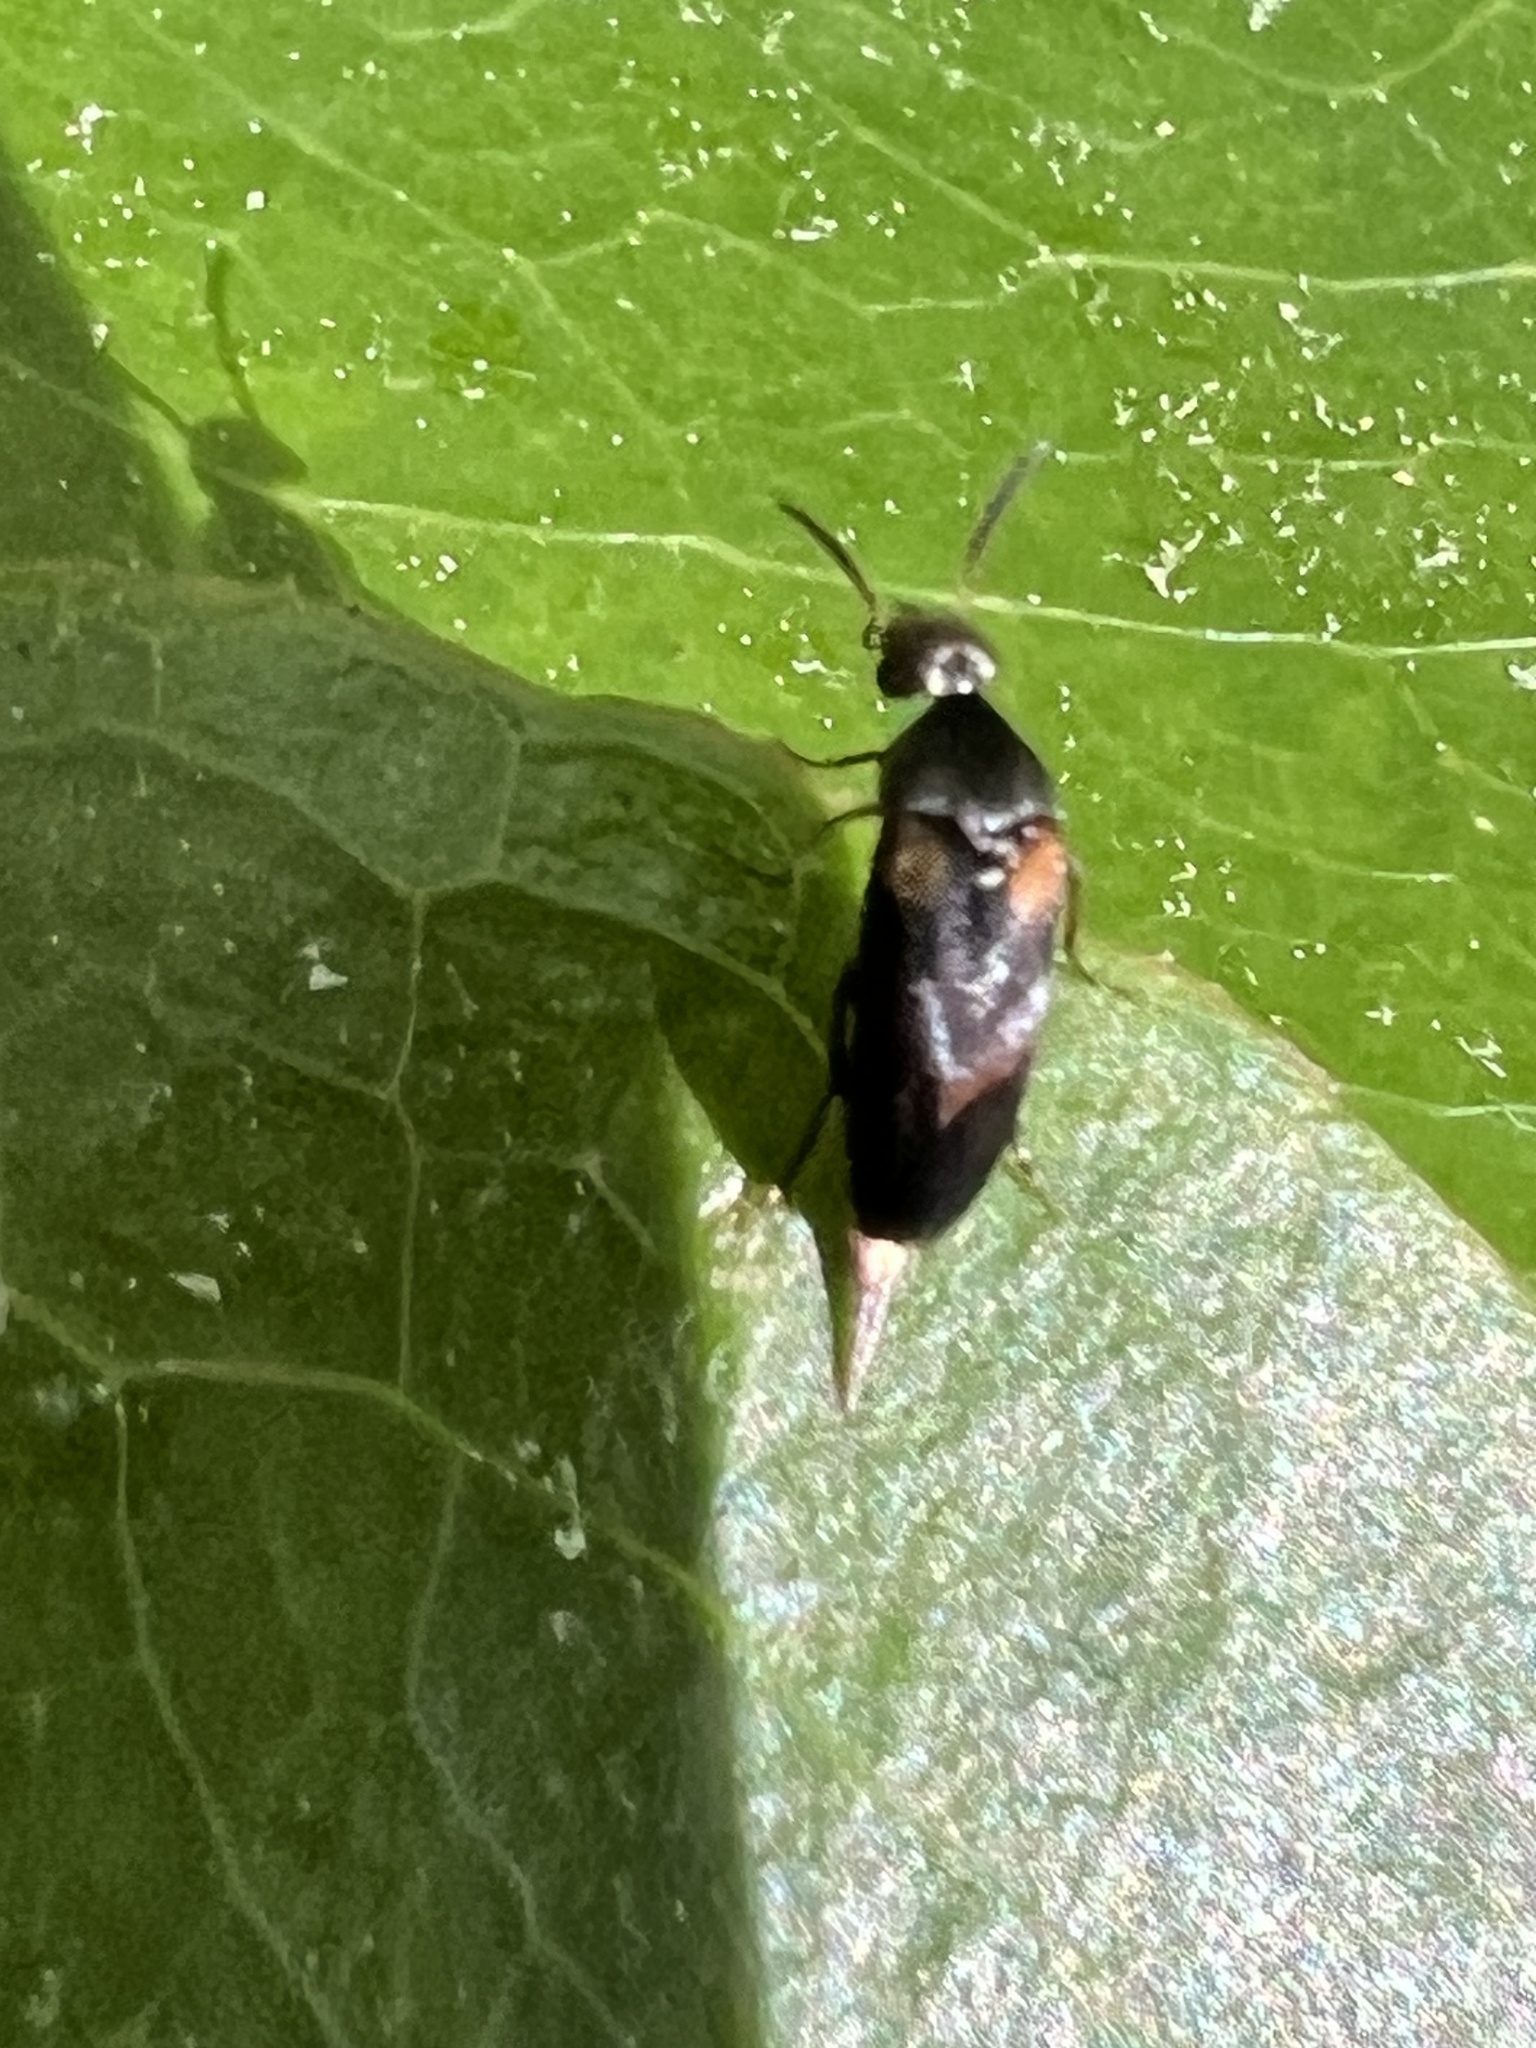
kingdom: Animalia
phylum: Arthropoda
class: Insecta
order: Coleoptera
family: Mordellidae
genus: Mordellochroa
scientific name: Mordellochroa scapularis
